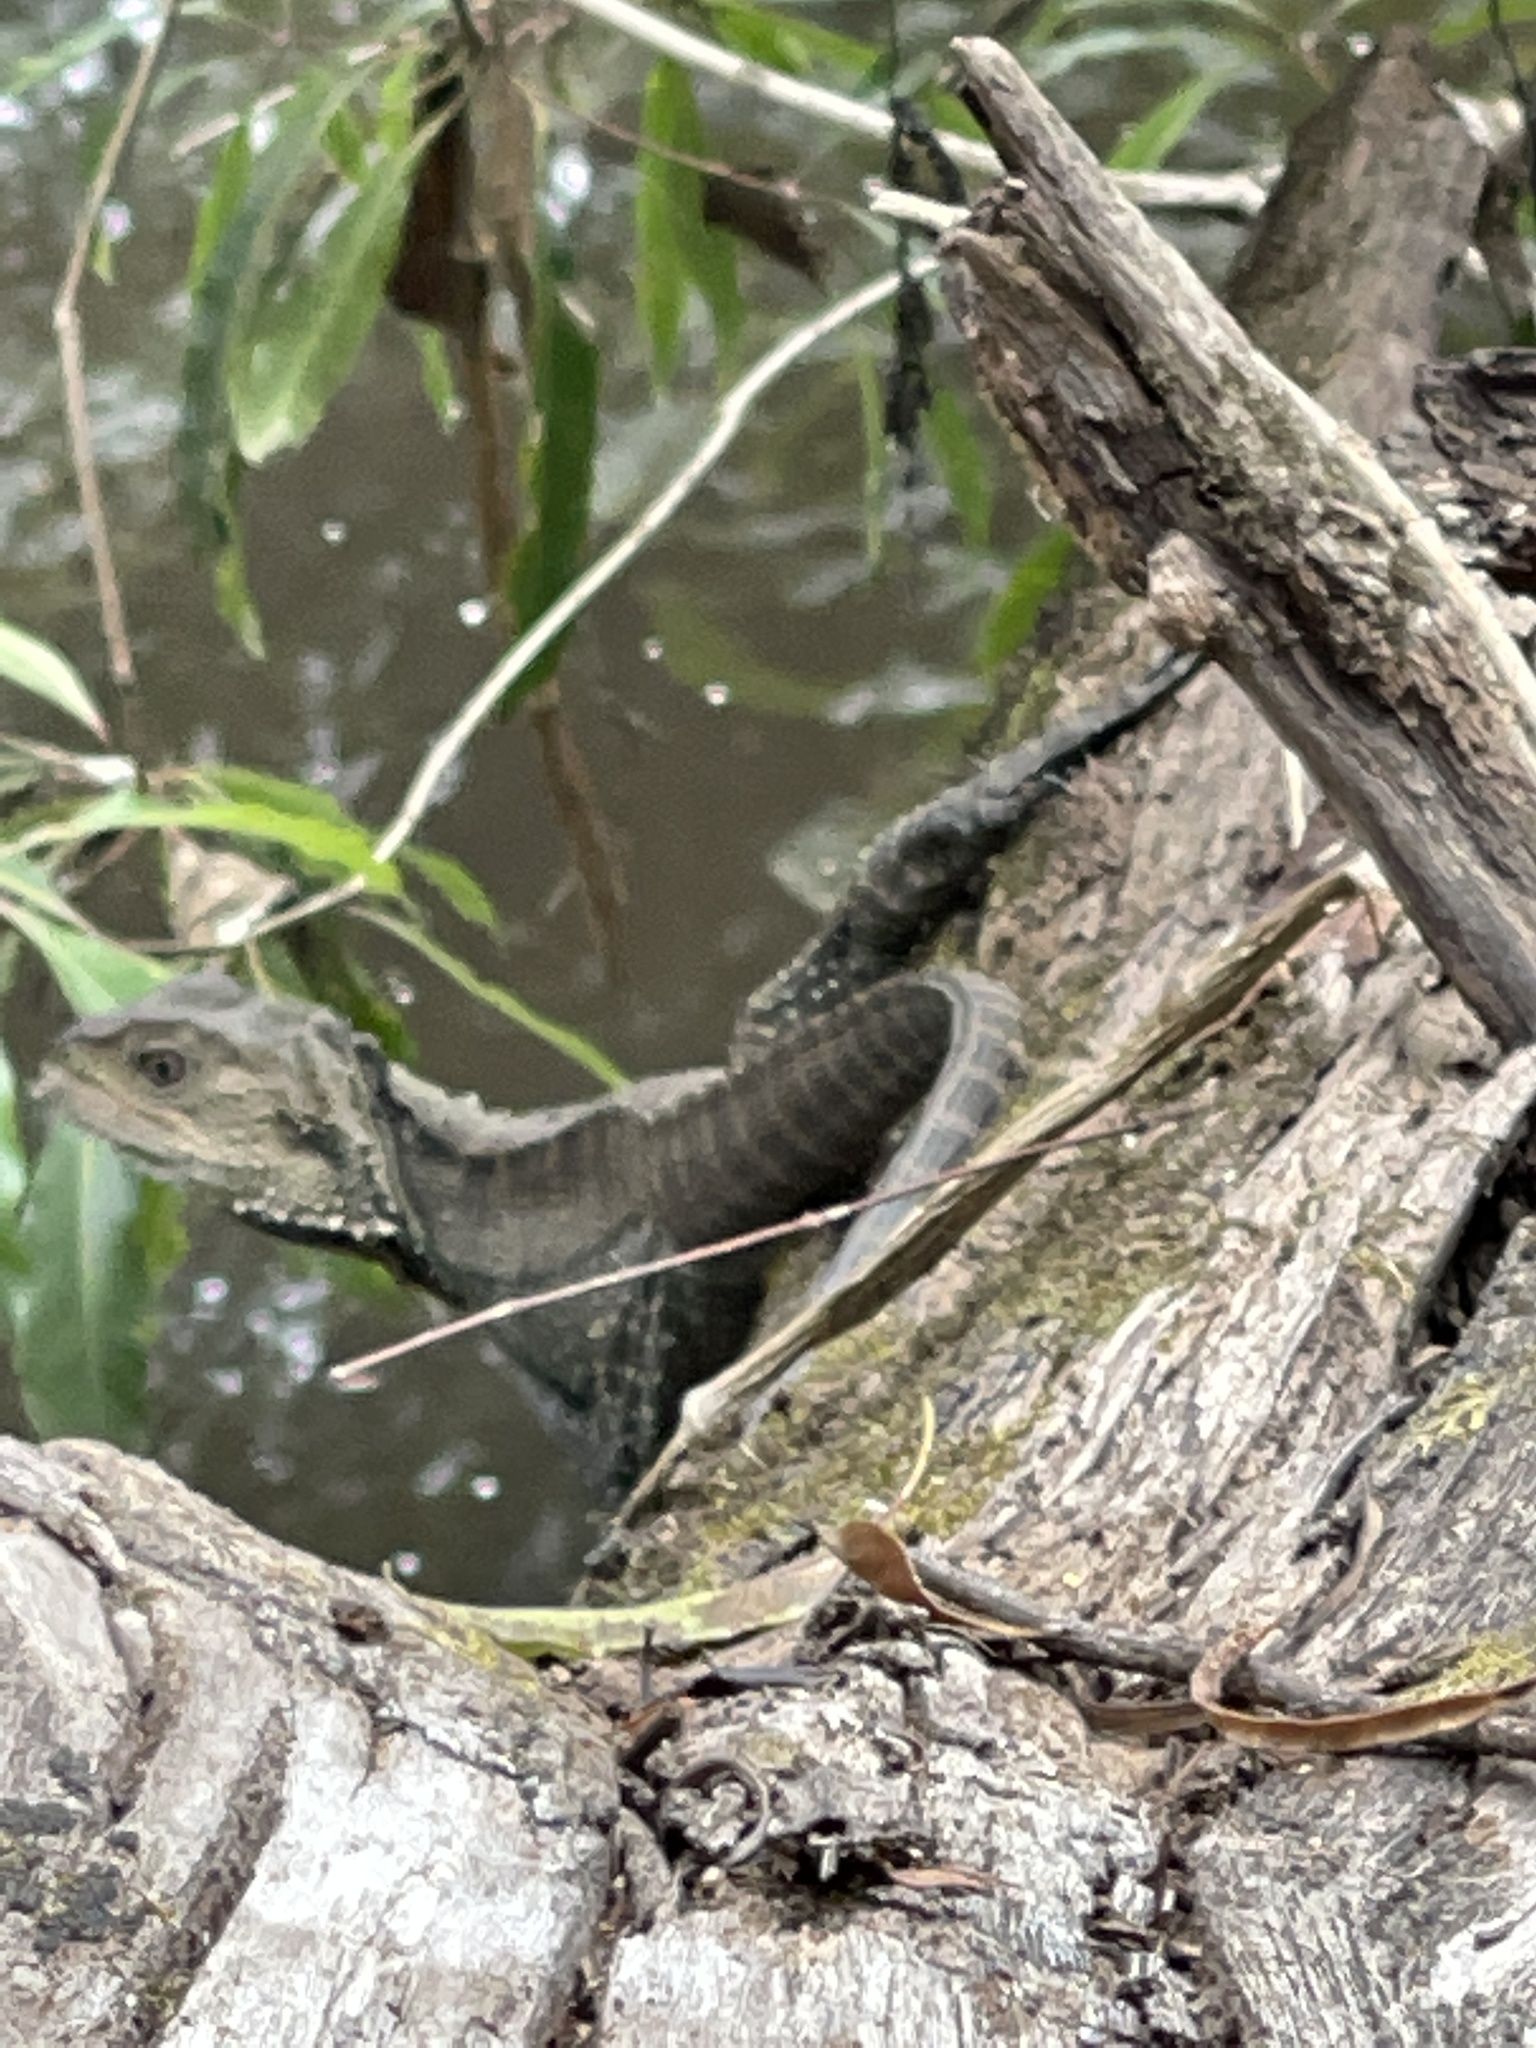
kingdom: Animalia
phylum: Chordata
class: Squamata
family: Agamidae
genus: Intellagama
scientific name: Intellagama lesueurii
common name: Eastern water dragon
